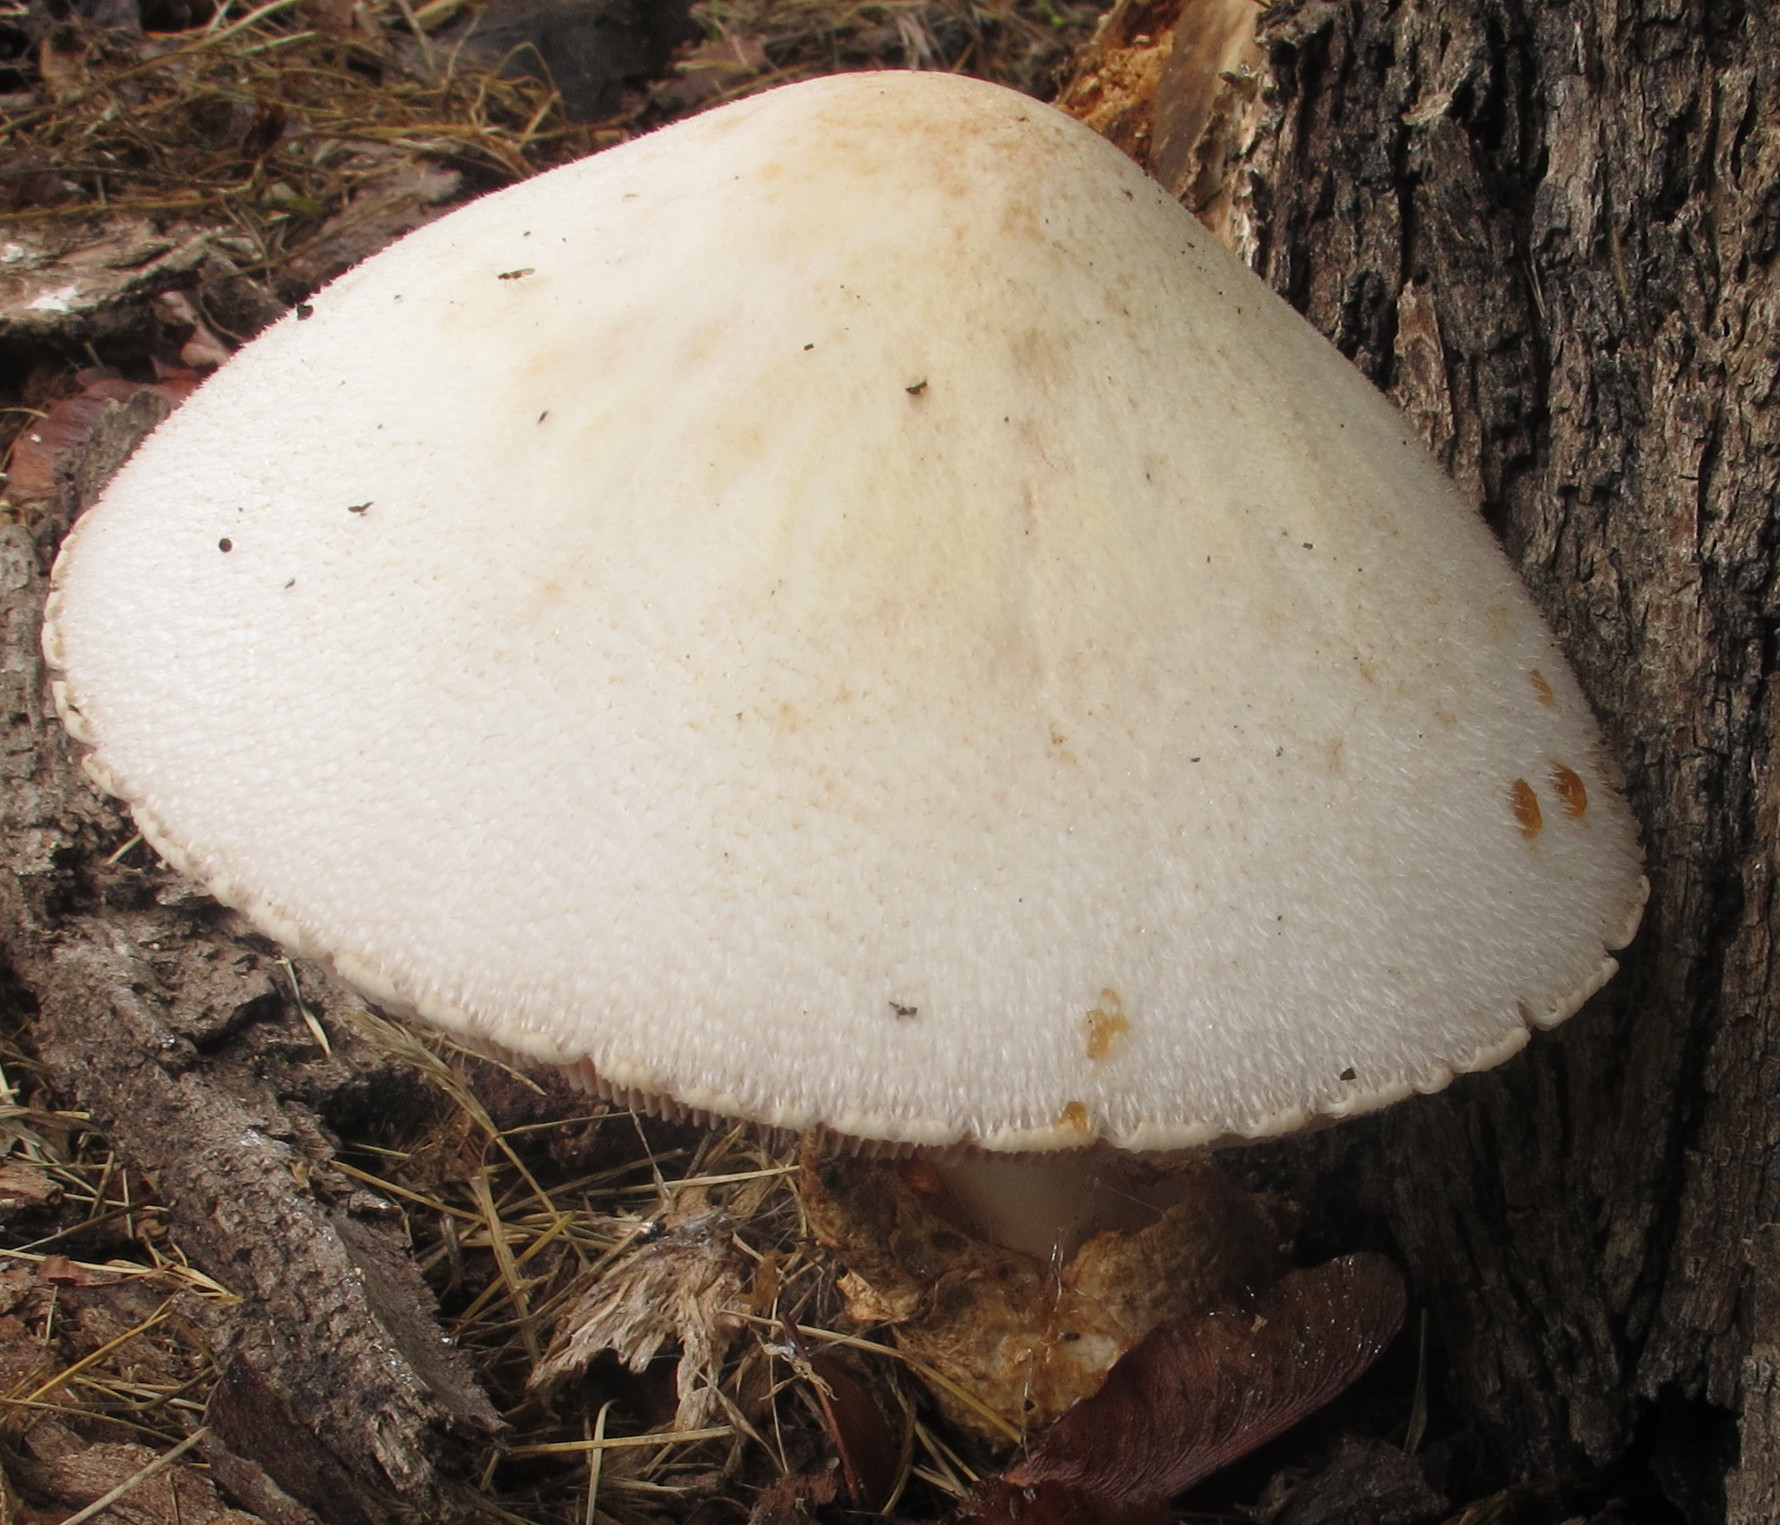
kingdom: Fungi
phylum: Basidiomycota
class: Agaricomycetes
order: Agaricales
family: Pluteaceae
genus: Volvariella
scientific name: Volvariella bombycina
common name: Silky rosegill
